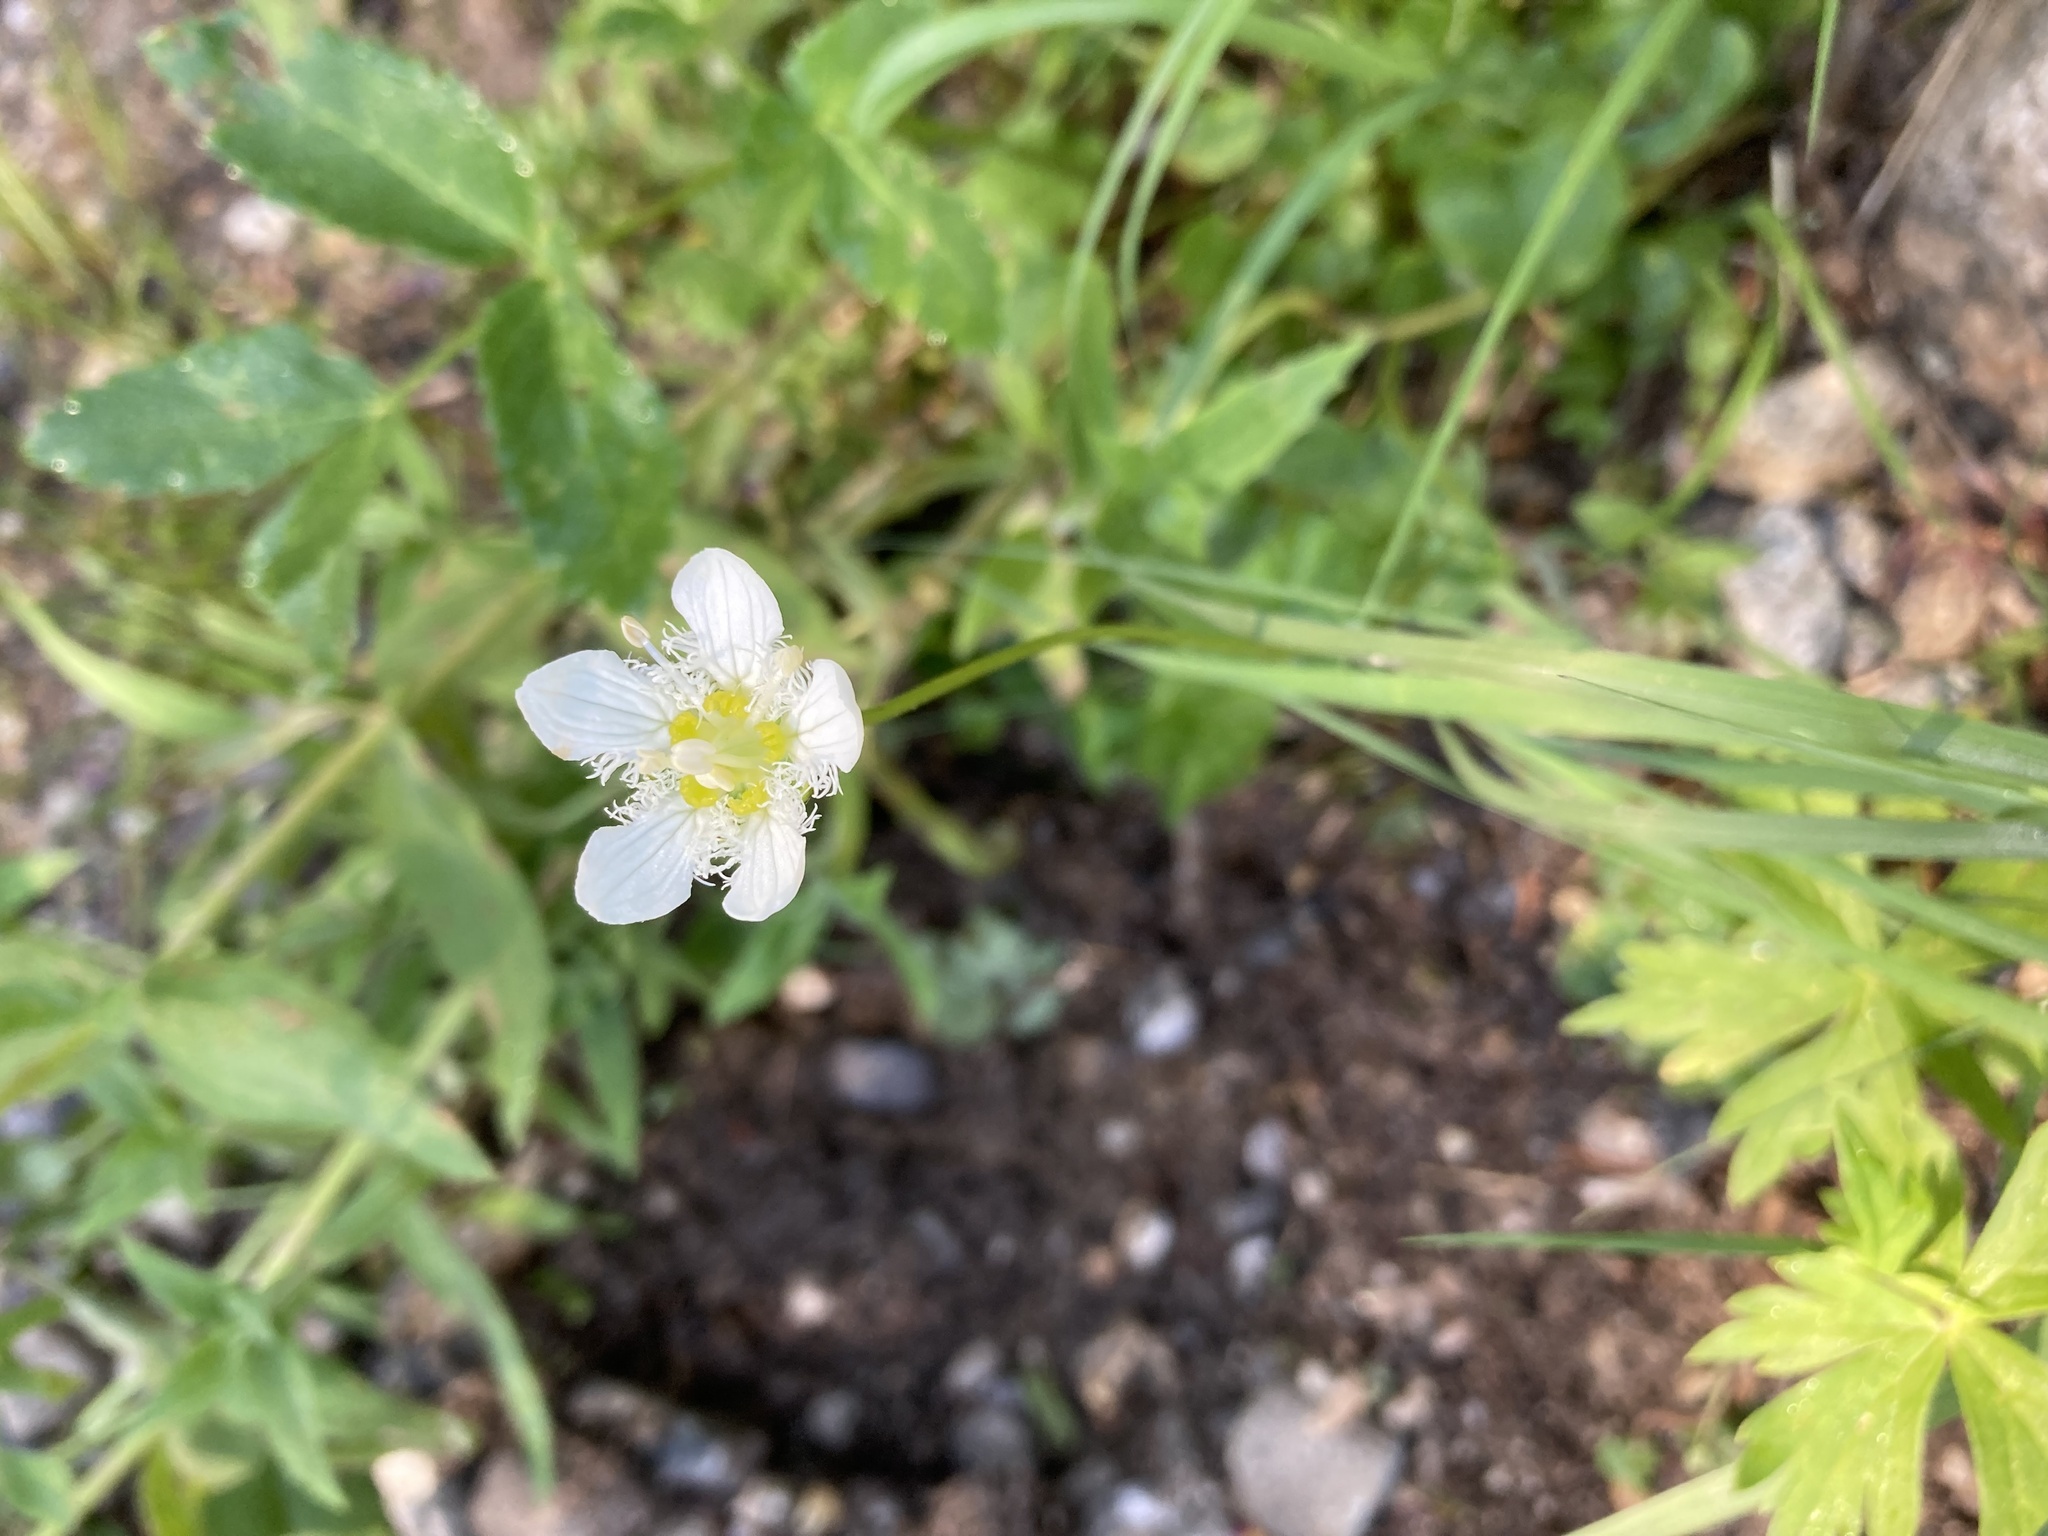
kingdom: Plantae
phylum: Tracheophyta
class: Magnoliopsida
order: Celastrales
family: Parnassiaceae
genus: Parnassia
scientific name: Parnassia fimbriata
